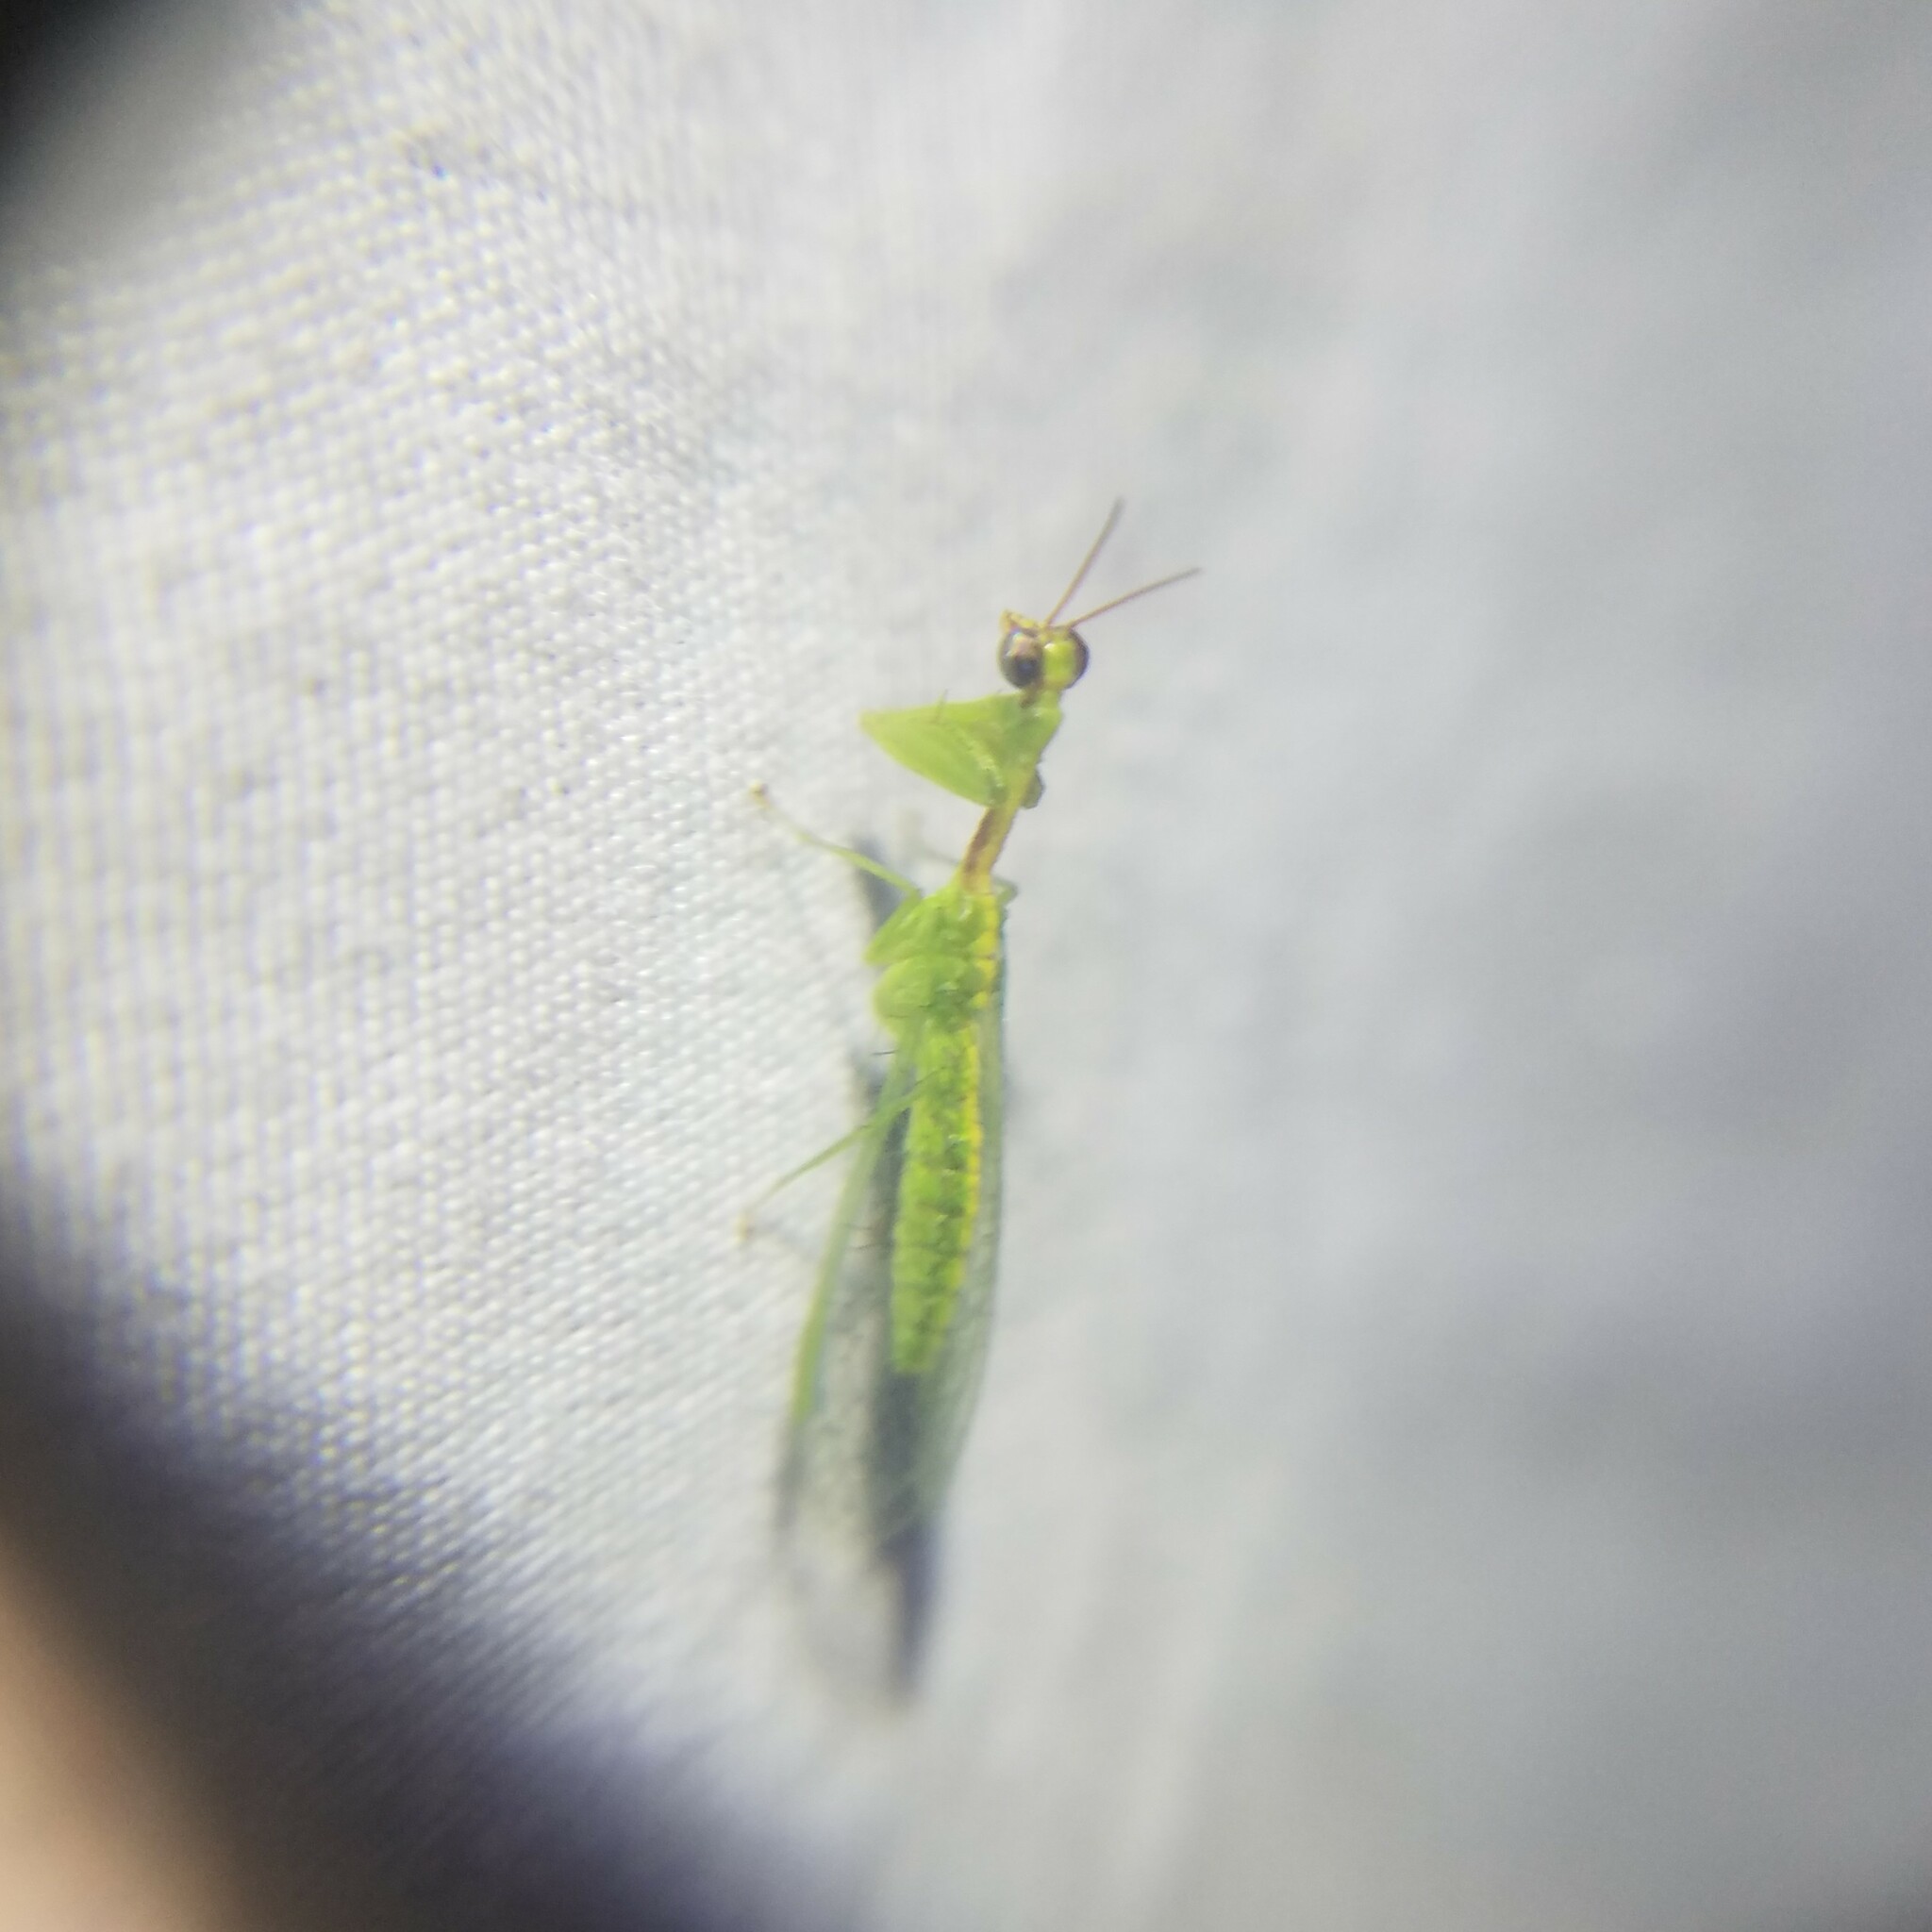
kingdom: Animalia
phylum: Arthropoda
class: Insecta
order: Neuroptera
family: Mantispidae
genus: Zeugomantispa
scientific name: Zeugomantispa minuta
